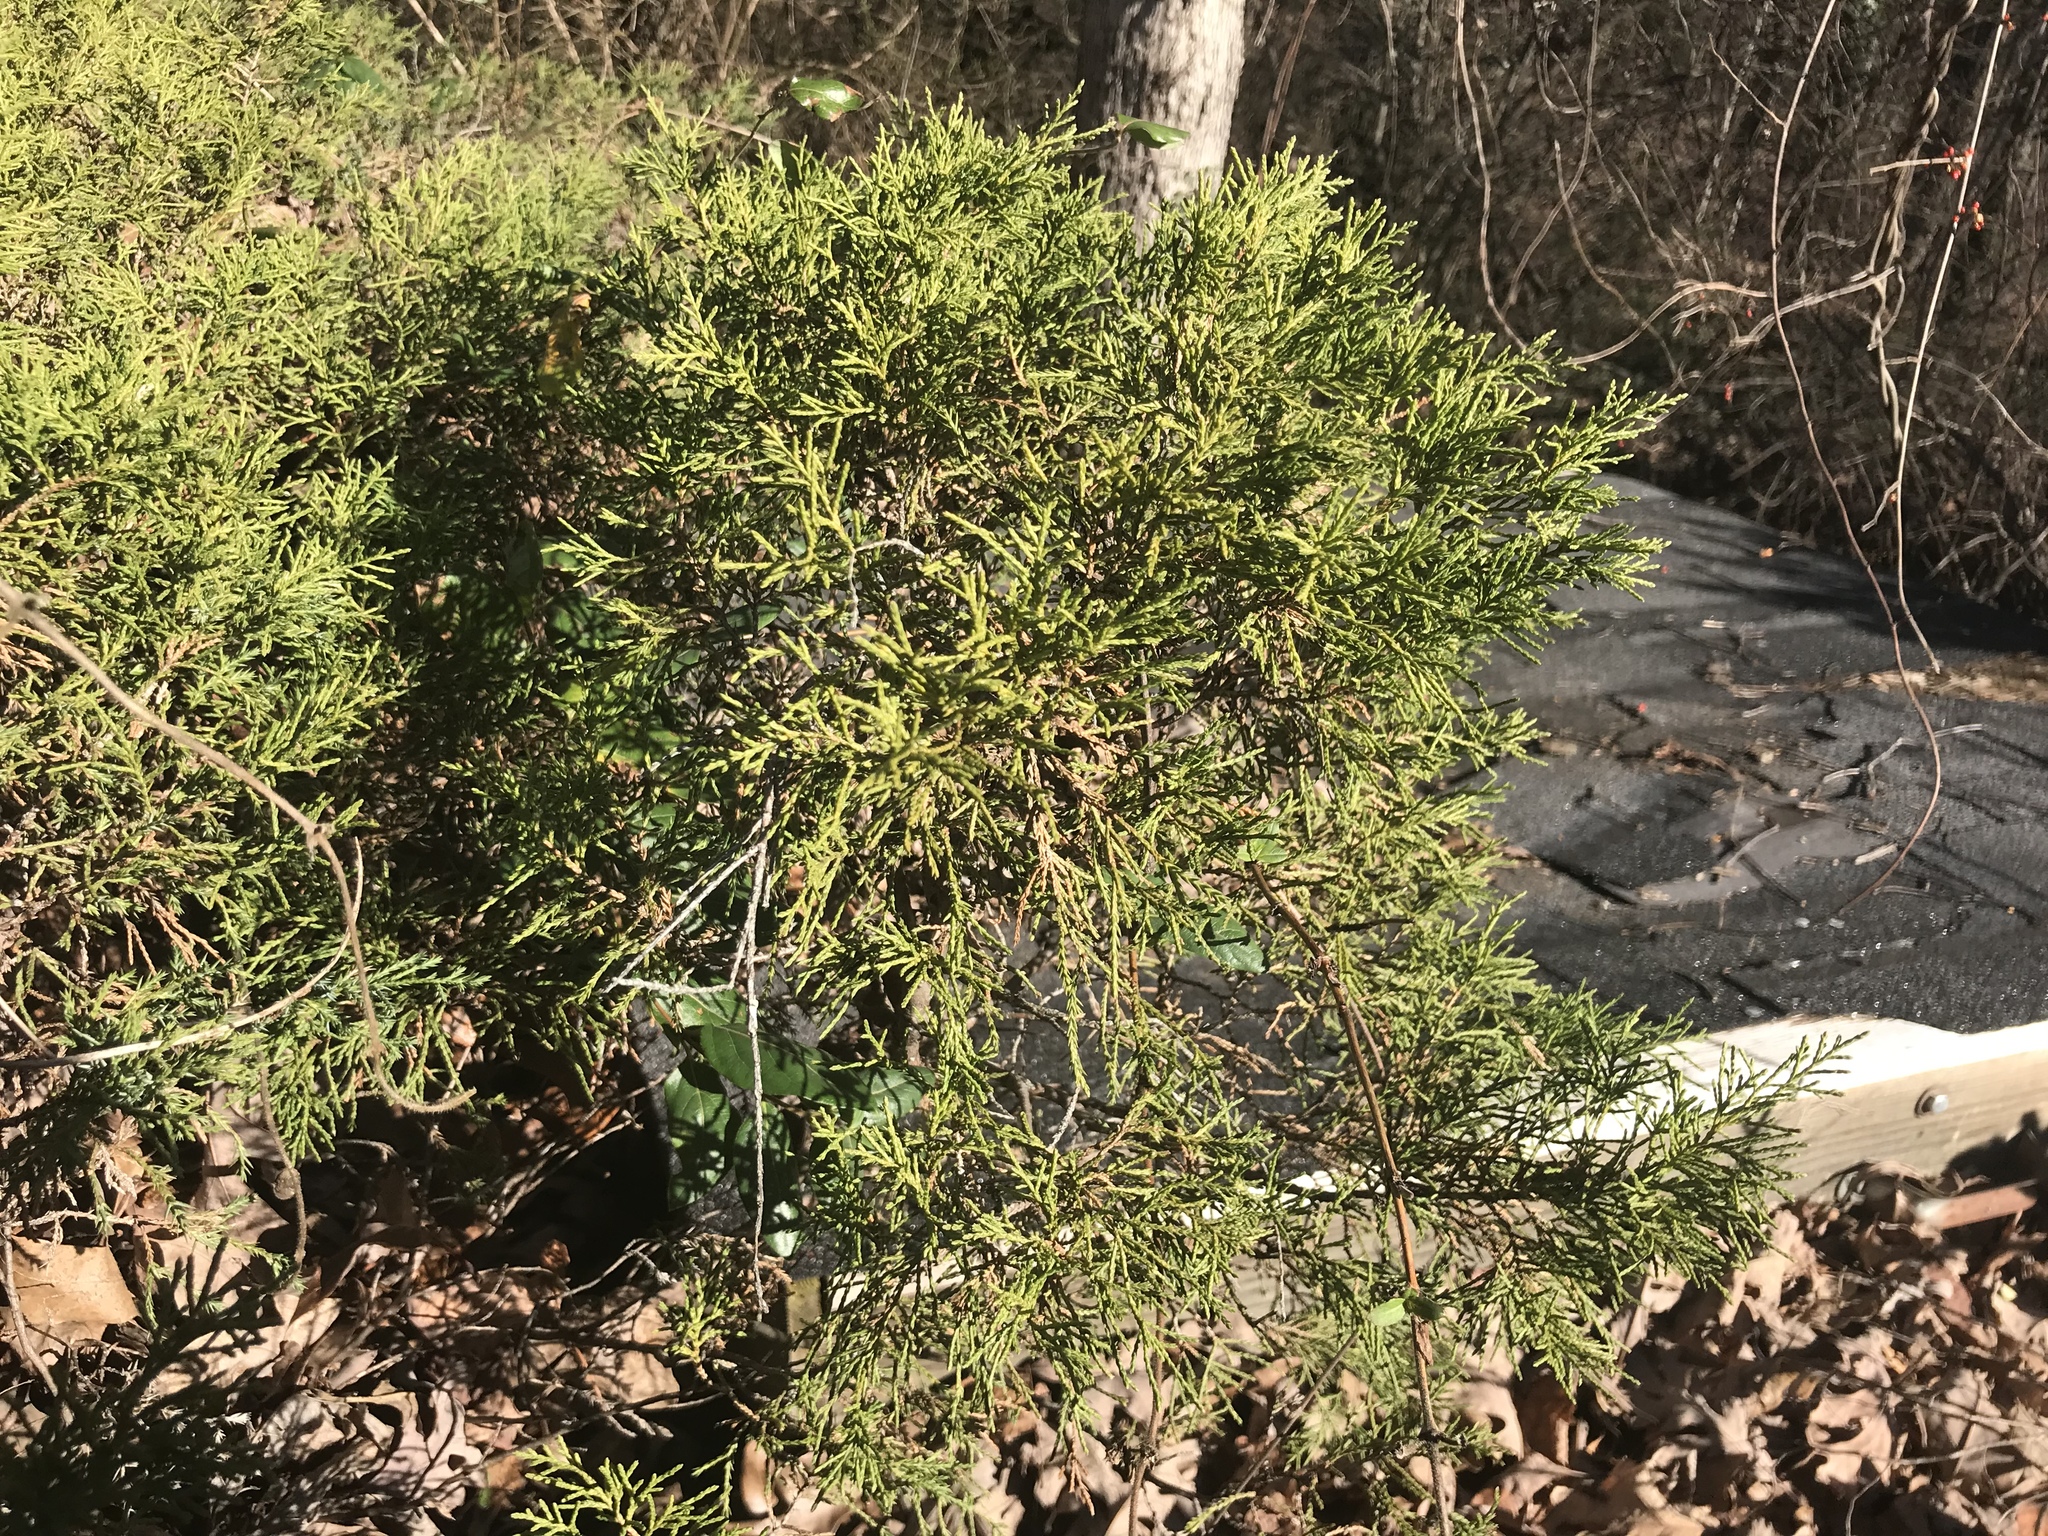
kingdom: Plantae
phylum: Tracheophyta
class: Pinopsida
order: Pinales
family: Cupressaceae
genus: Juniperus
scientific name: Juniperus virginiana
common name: Red juniper
